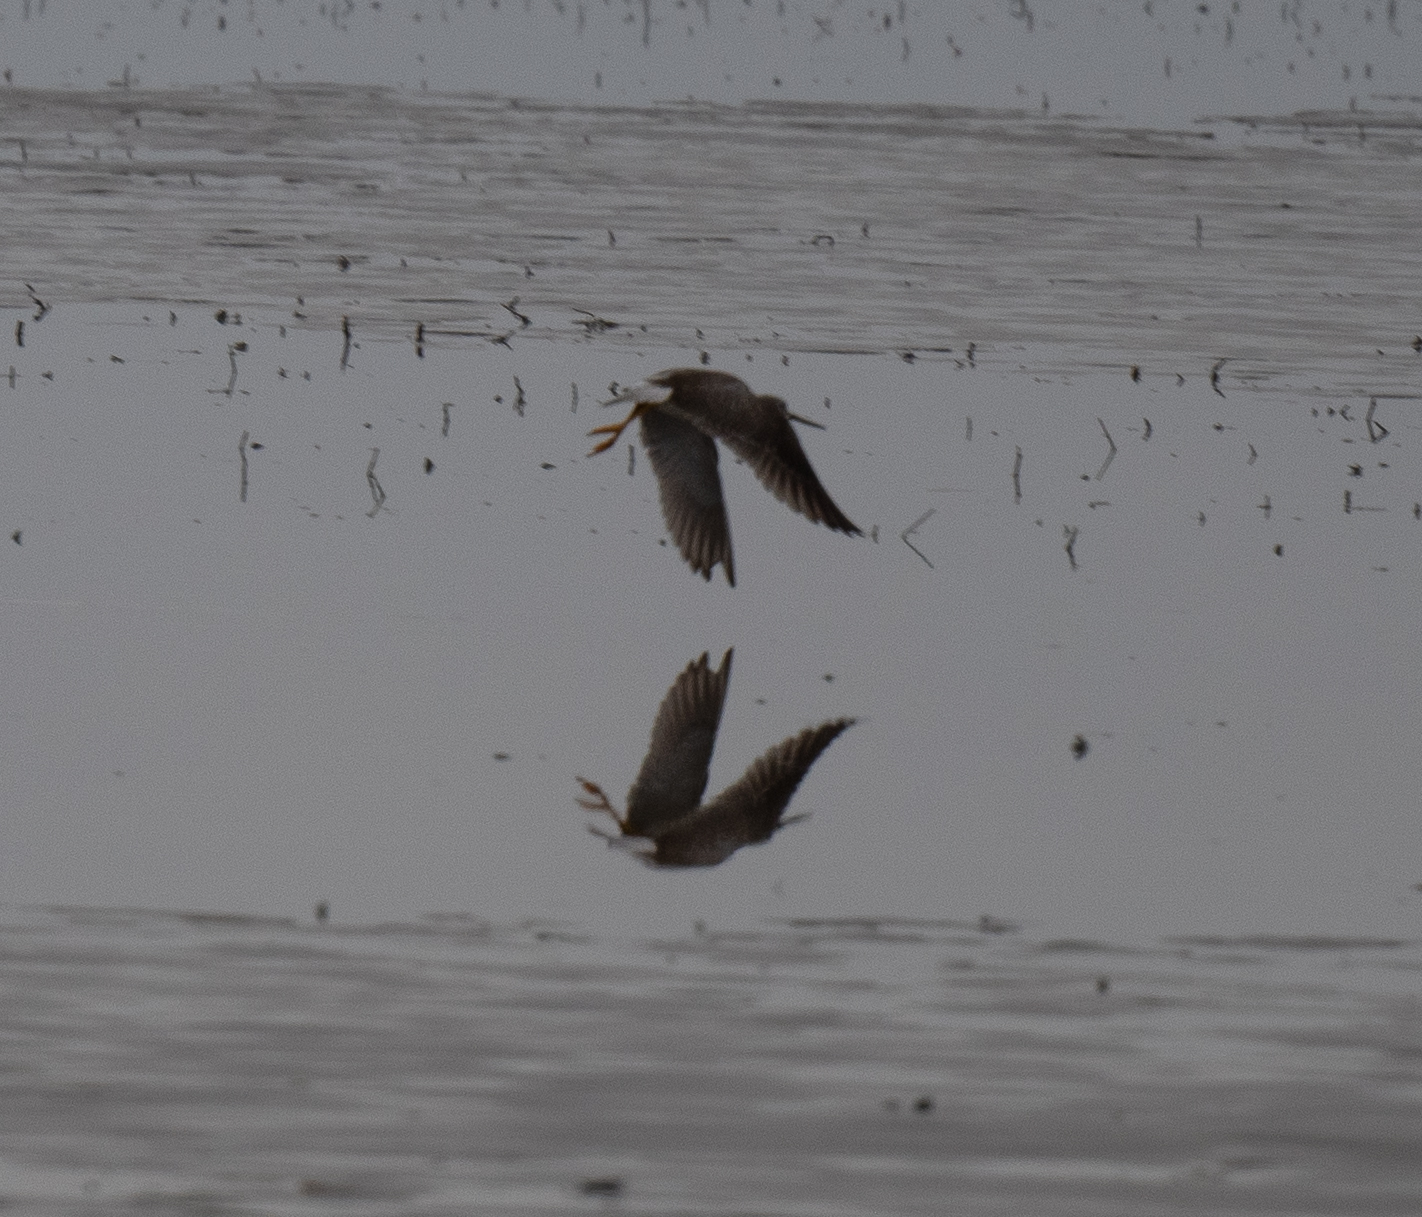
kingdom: Animalia
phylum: Chordata
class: Aves
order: Charadriiformes
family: Scolopacidae
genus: Tringa
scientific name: Tringa melanoleuca
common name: Greater yellowlegs
